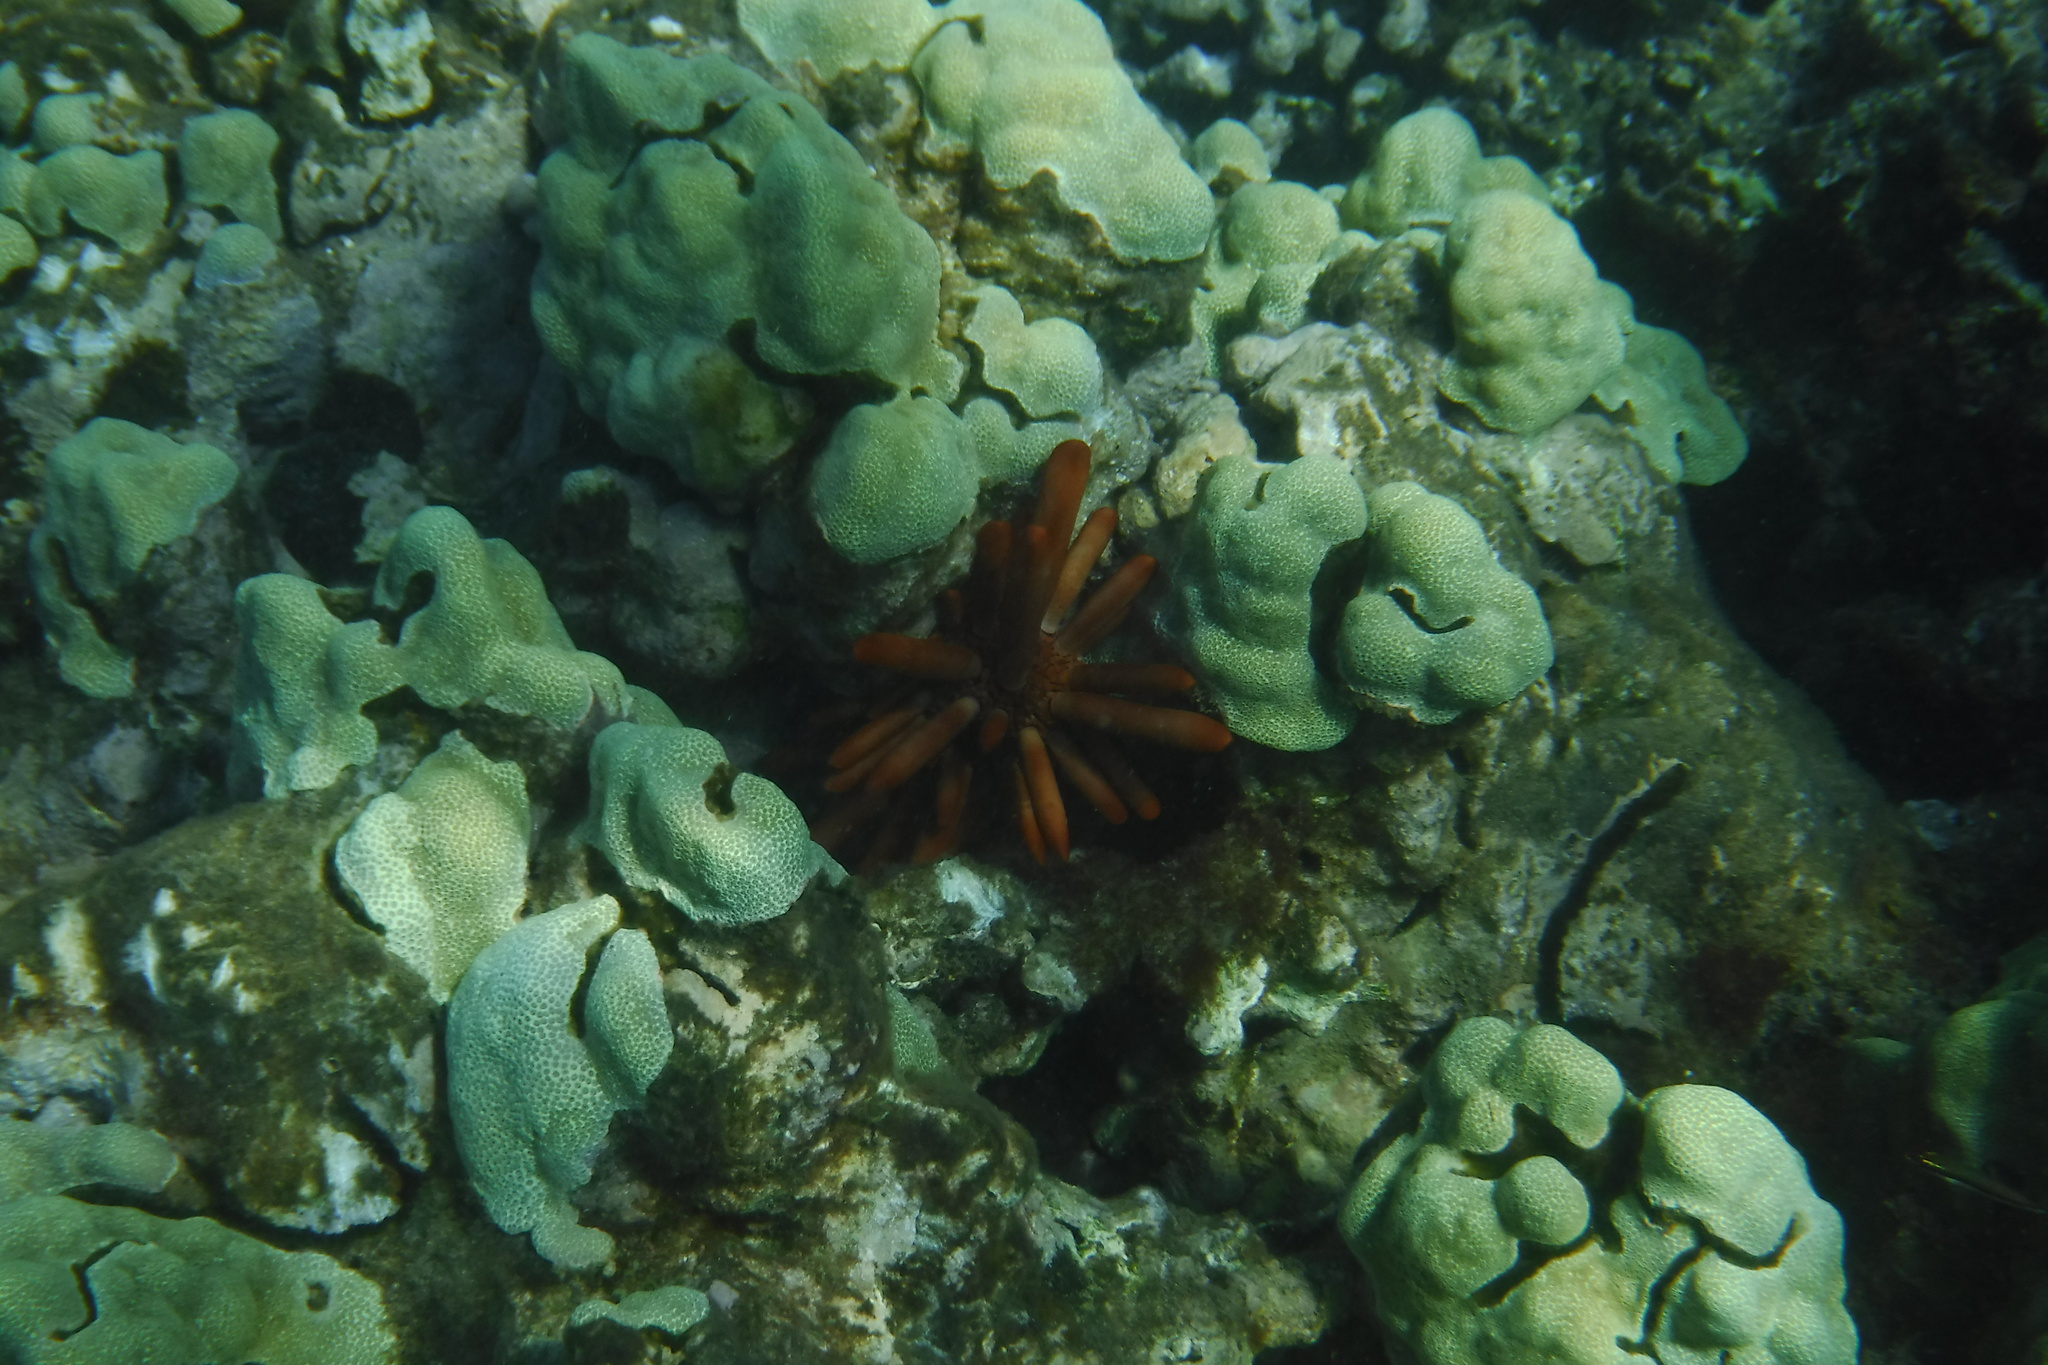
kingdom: Animalia
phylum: Echinodermata
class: Echinoidea
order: Camarodonta
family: Echinometridae
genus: Heterocentrotus
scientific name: Heterocentrotus mamillatus
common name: Slate pencil urchin
